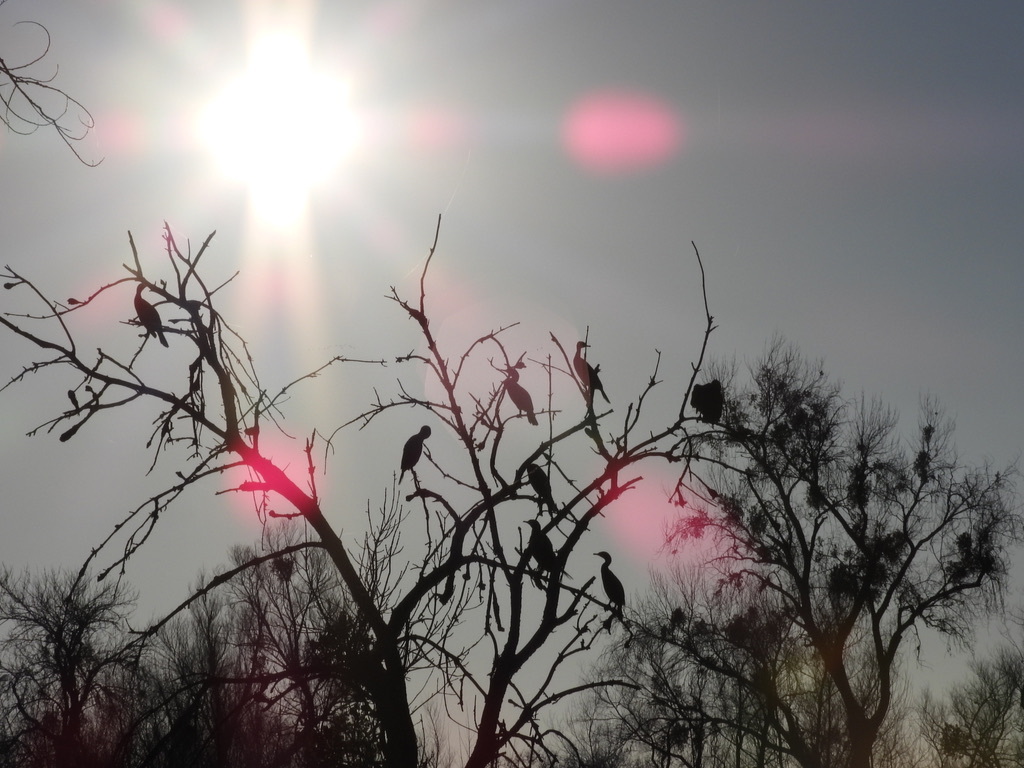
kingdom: Animalia
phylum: Chordata
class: Aves
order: Suliformes
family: Phalacrocoracidae
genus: Phalacrocorax
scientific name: Phalacrocorax auritus
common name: Double-crested cormorant
